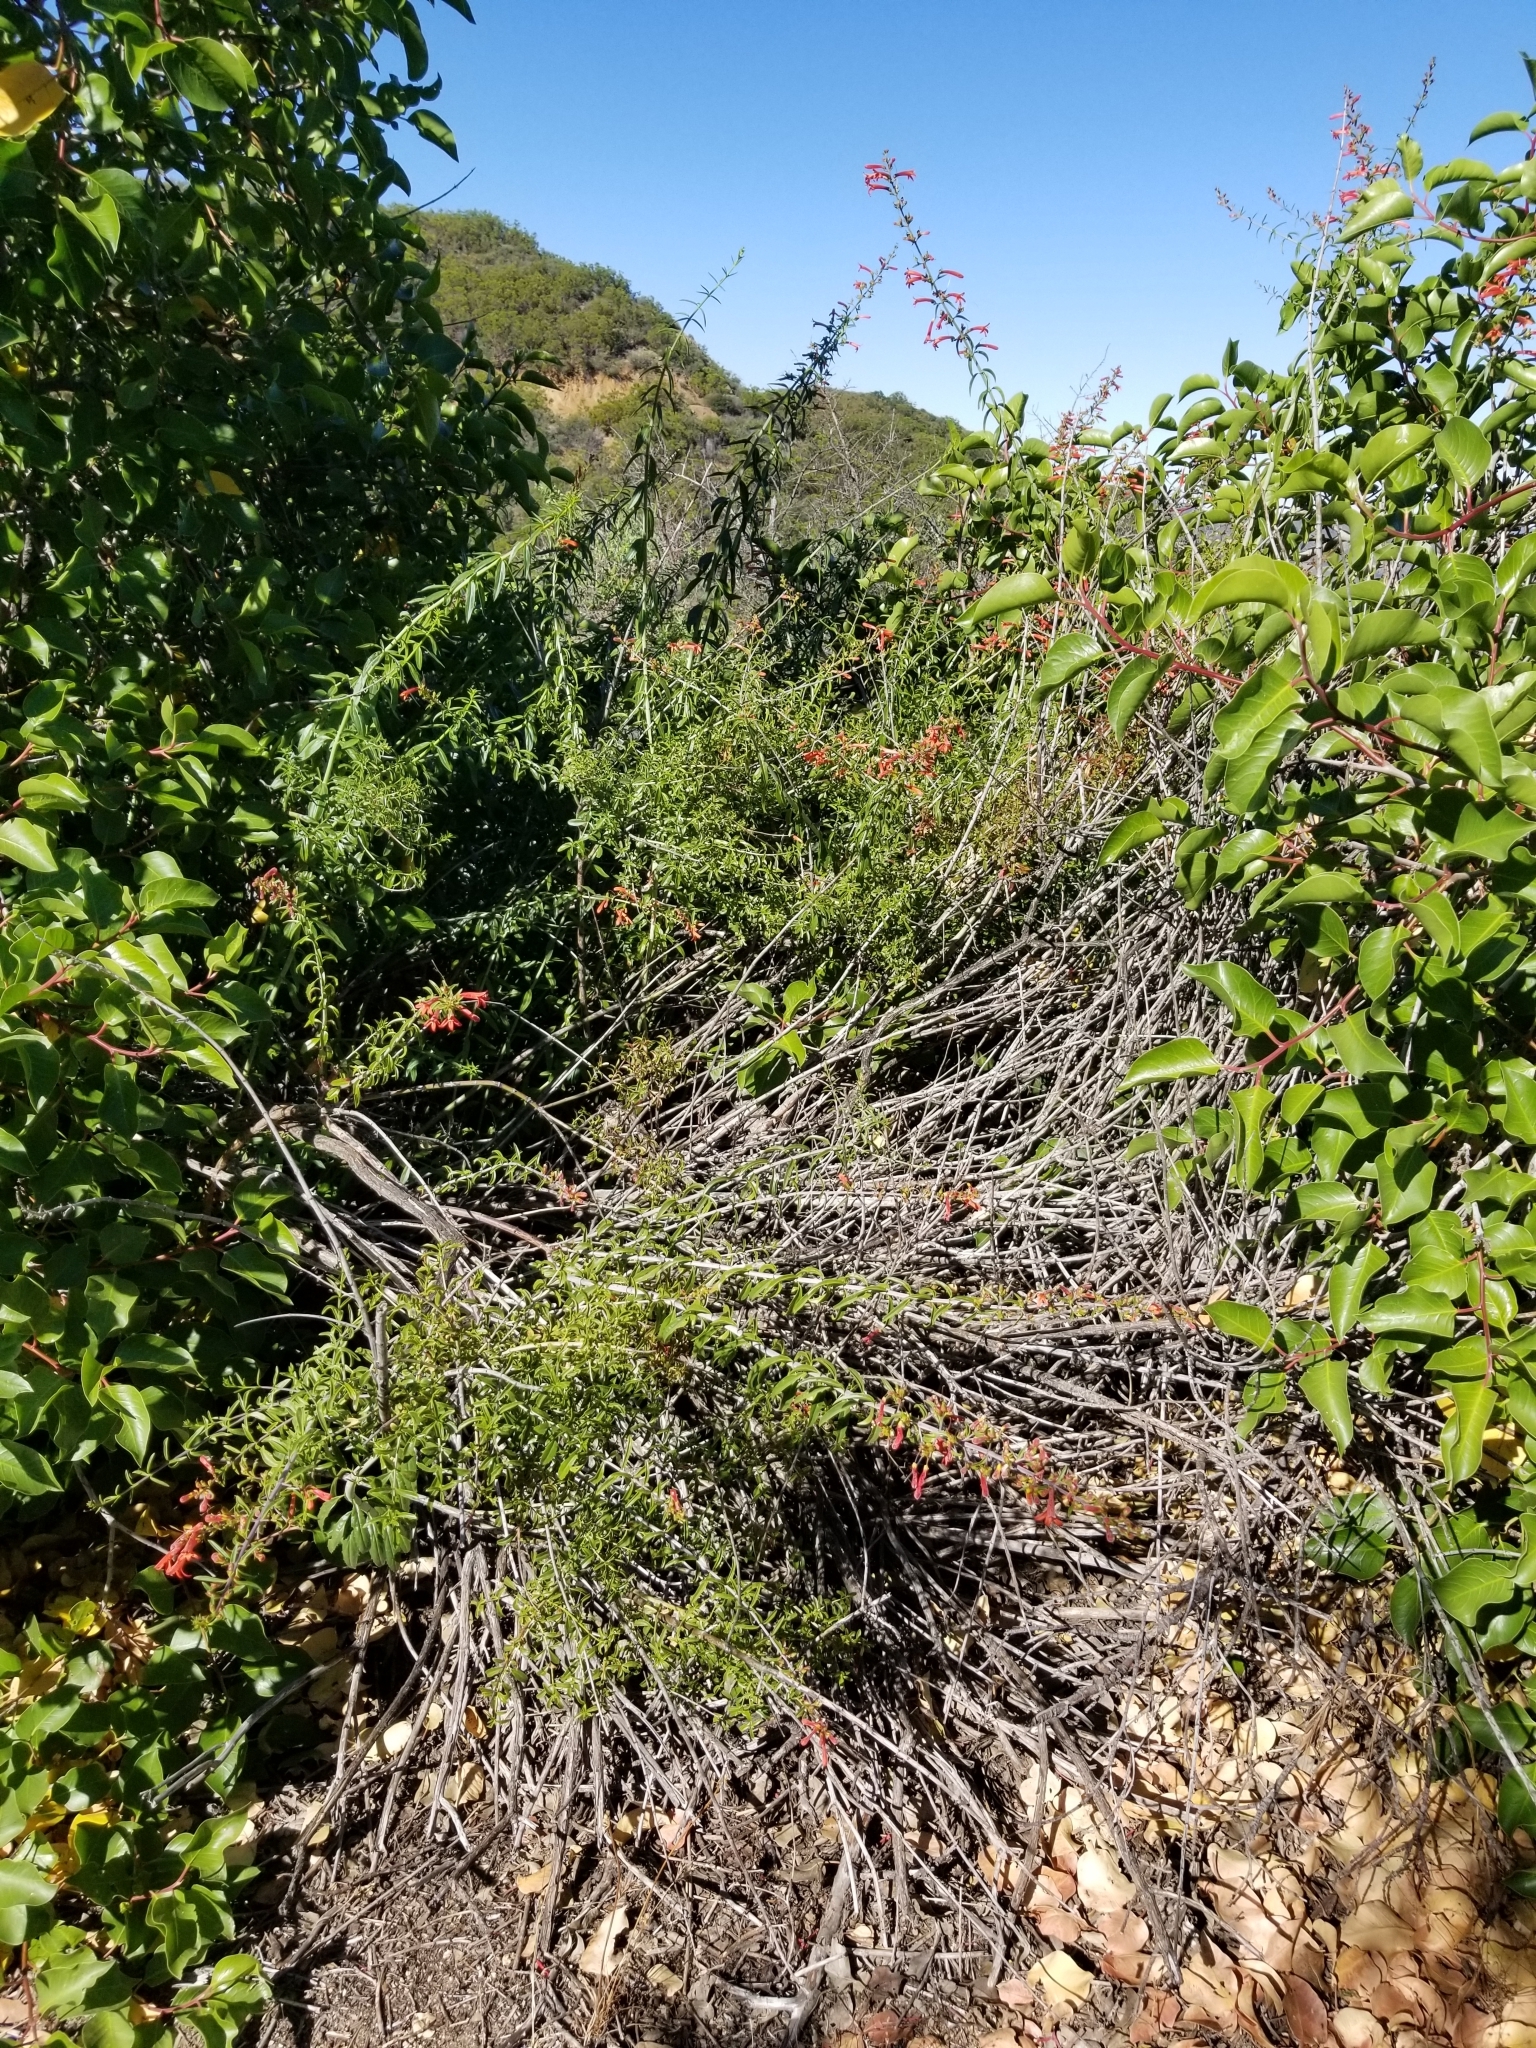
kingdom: Plantae
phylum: Tracheophyta
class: Magnoliopsida
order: Lamiales
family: Plantaginaceae
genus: Keckiella
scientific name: Keckiella ternata
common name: Scarlet keckiella
